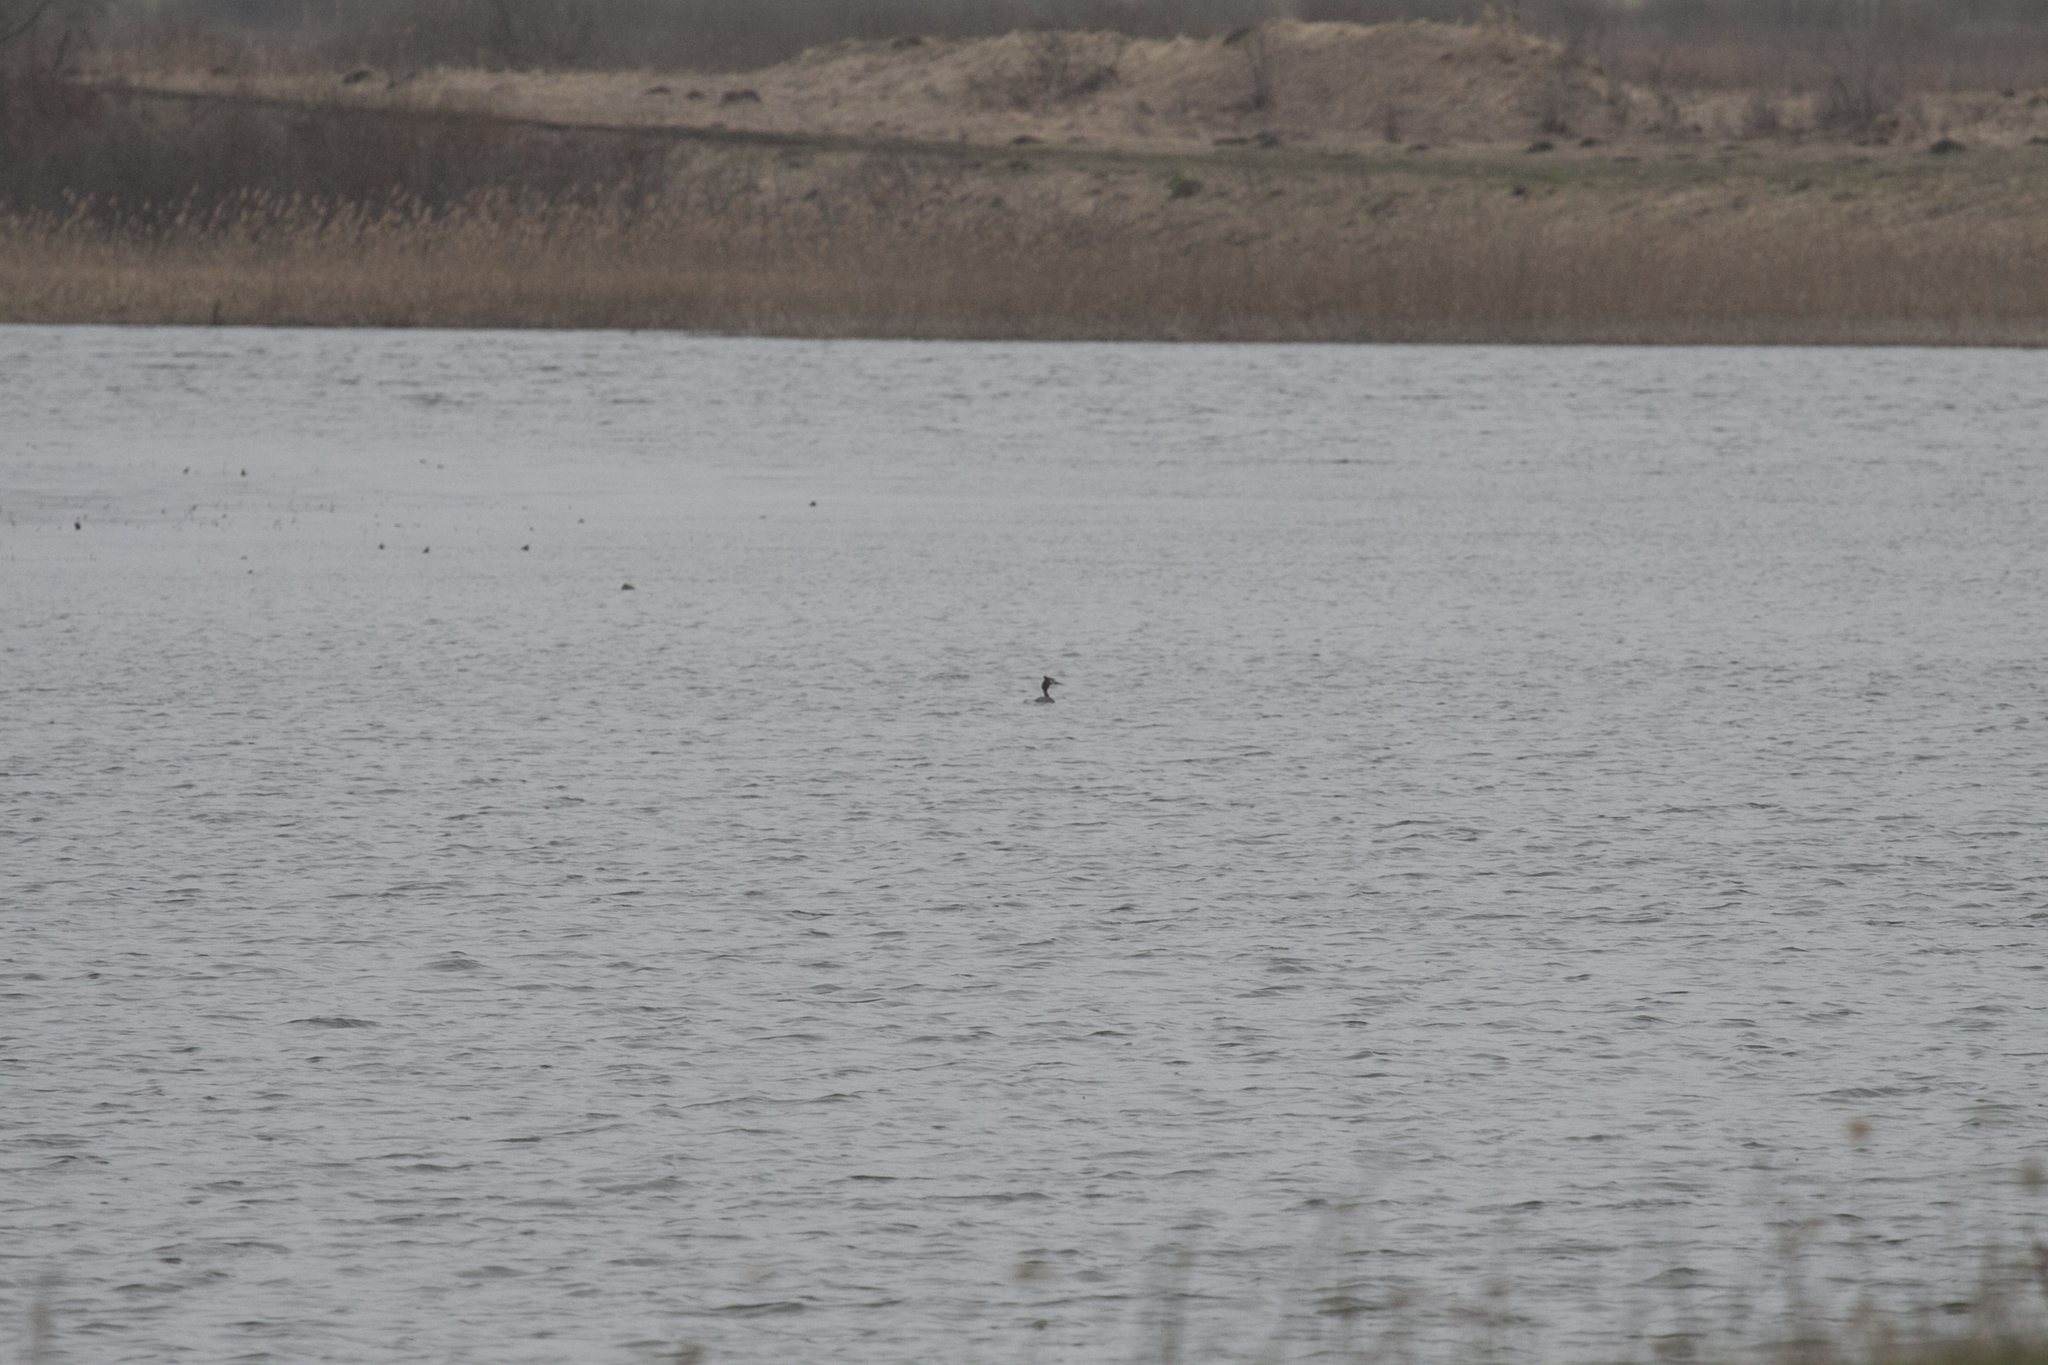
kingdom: Animalia
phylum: Chordata
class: Aves
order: Podicipediformes
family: Podicipedidae
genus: Podiceps
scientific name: Podiceps cristatus
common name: Great crested grebe
